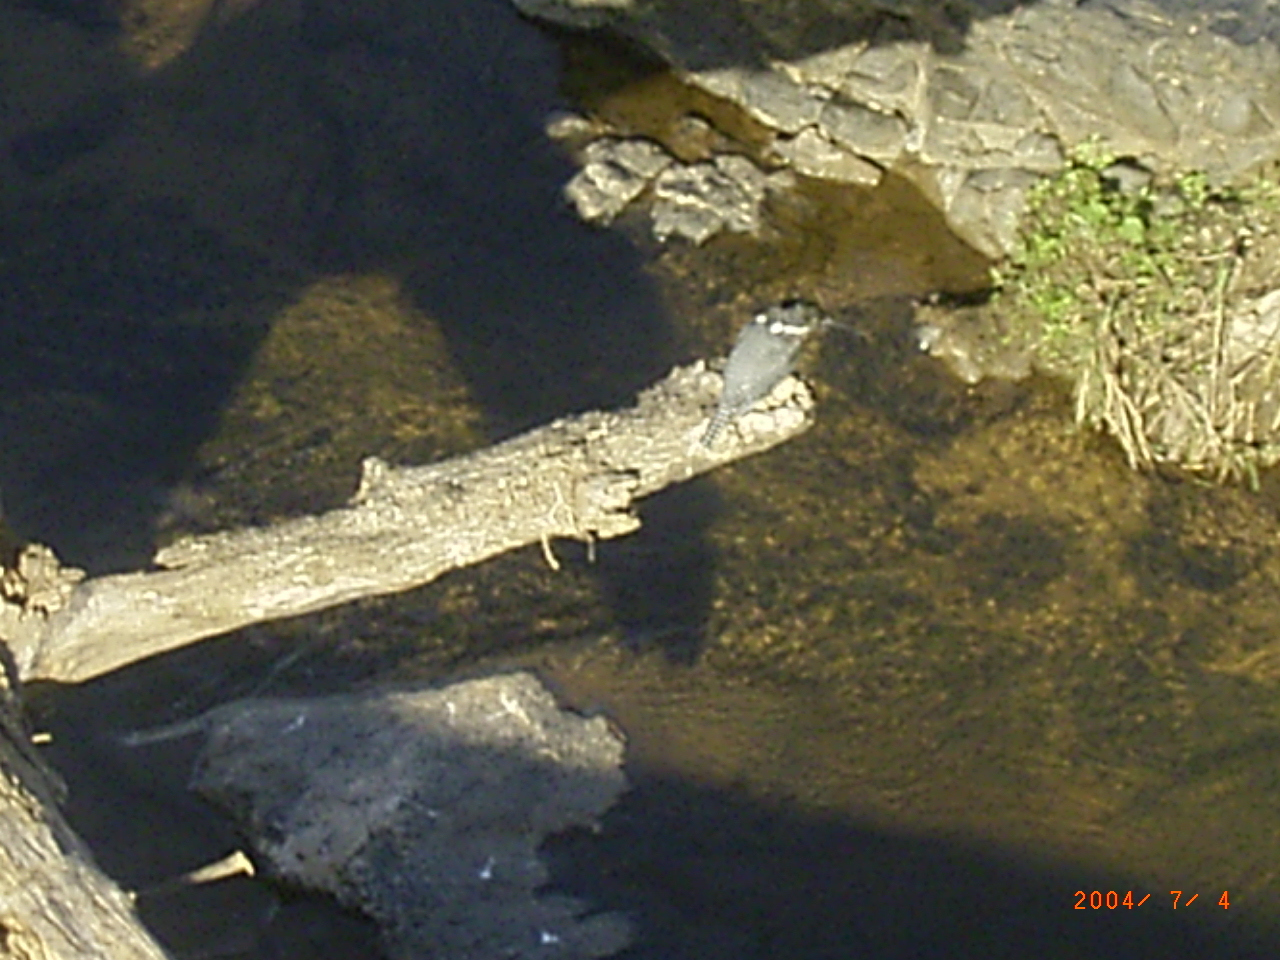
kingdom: Animalia
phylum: Chordata
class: Aves
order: Coraciiformes
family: Alcedinidae
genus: Megaceryle
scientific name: Megaceryle maxima
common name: Giant kingfisher
